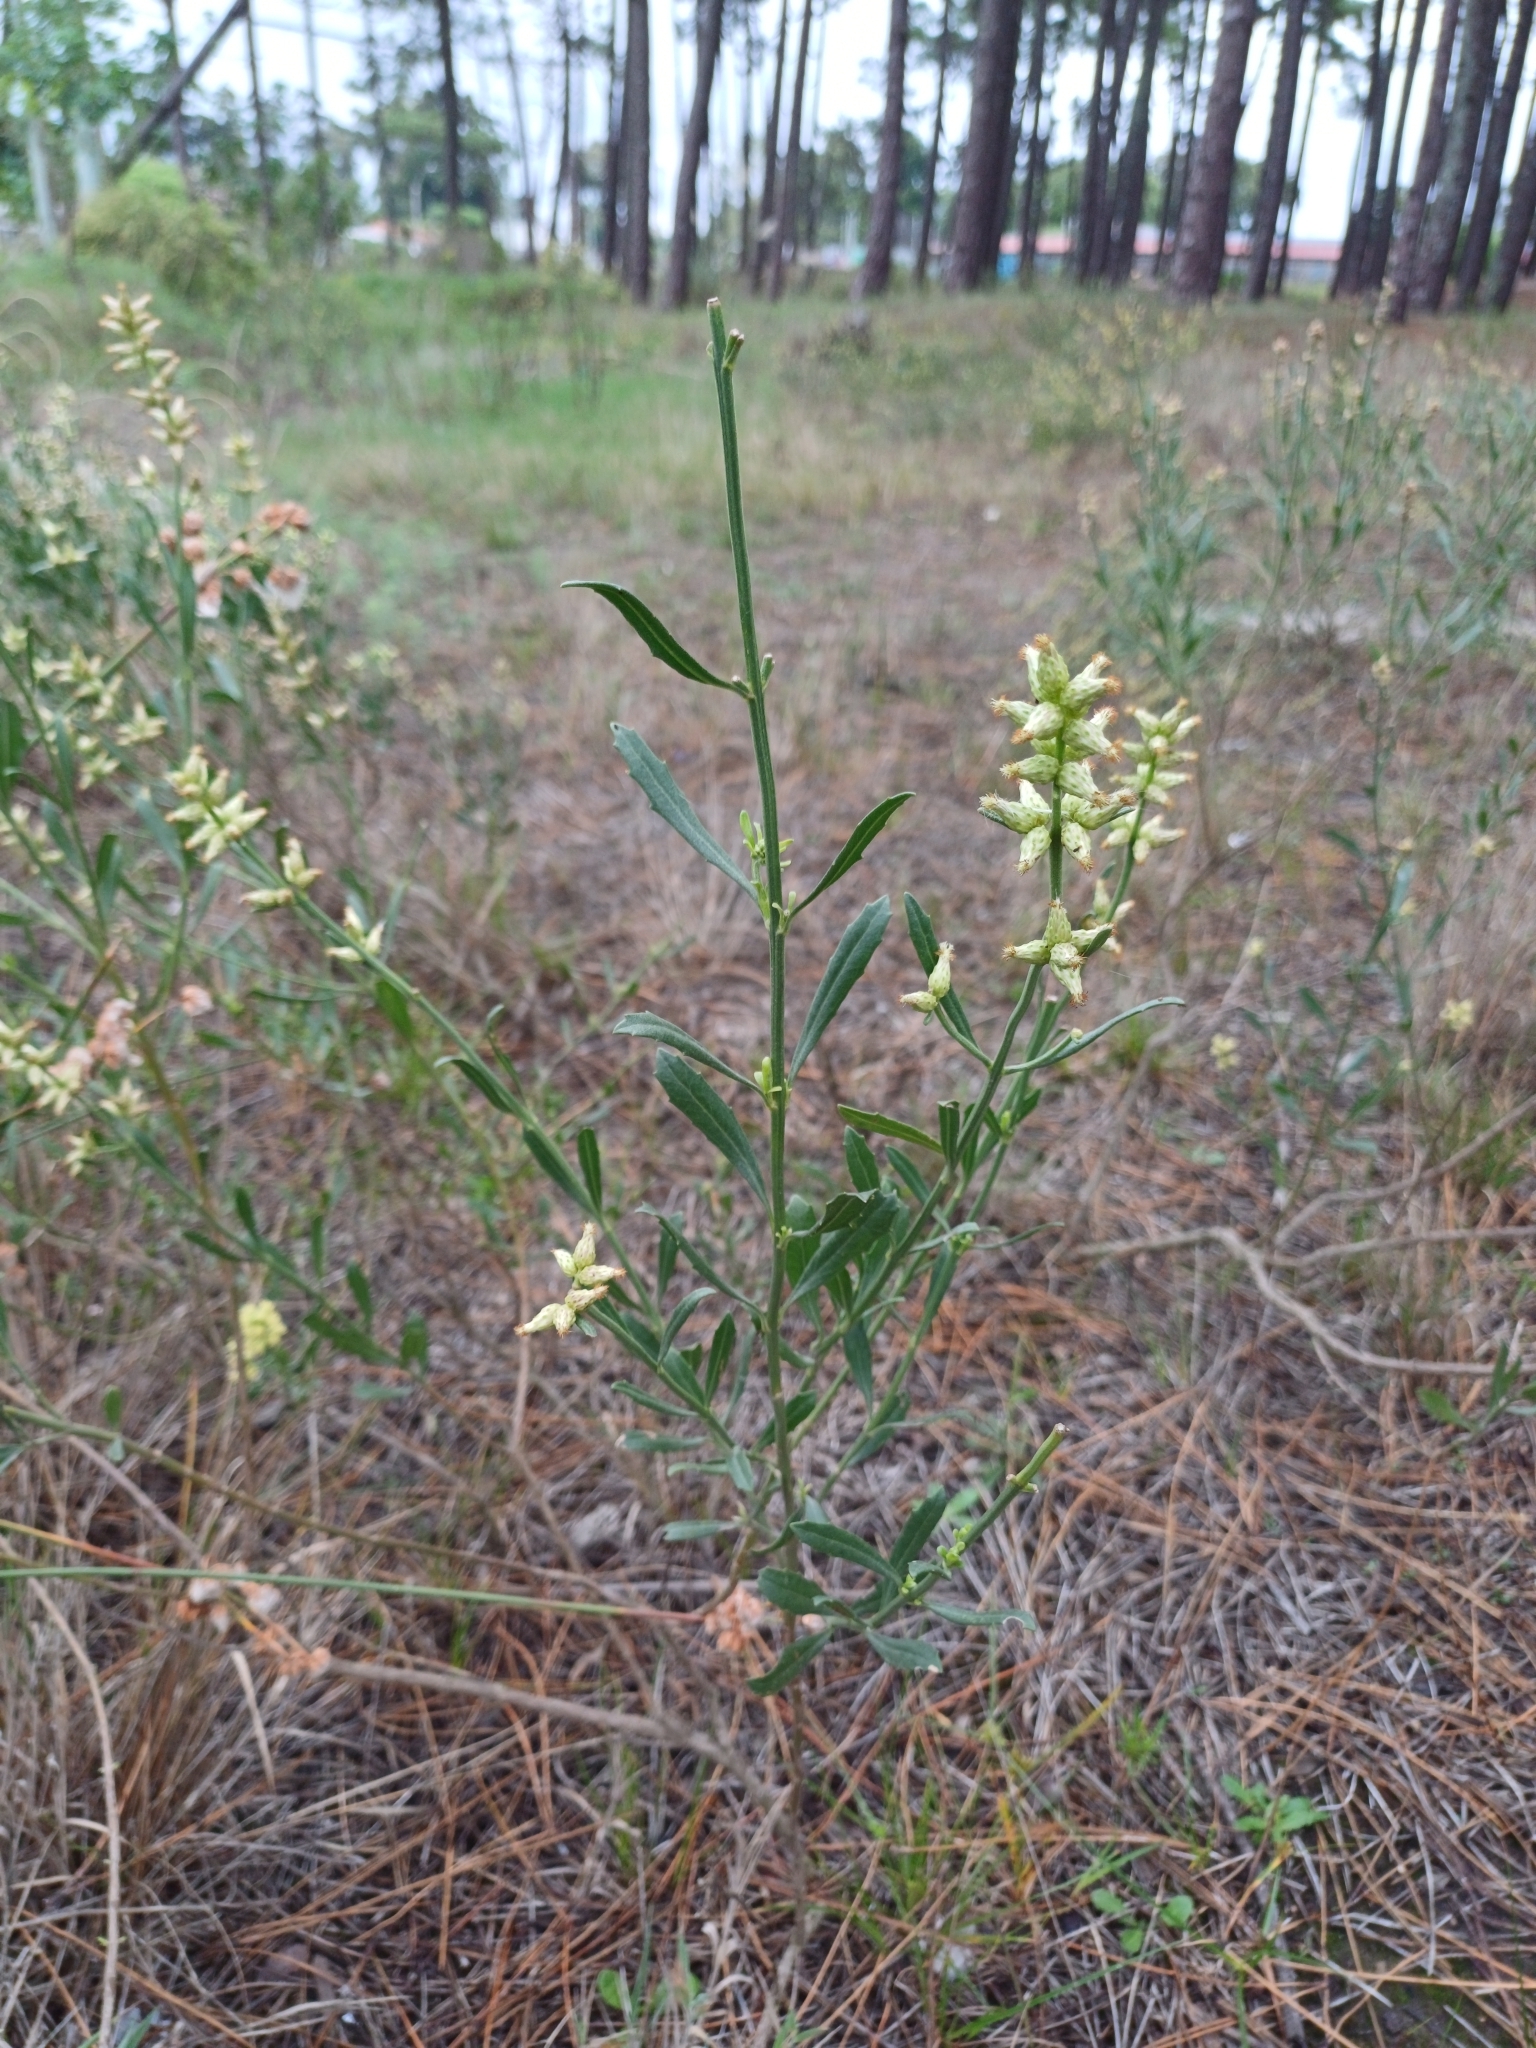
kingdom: Plantae
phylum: Tracheophyta
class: Magnoliopsida
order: Asterales
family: Asteraceae
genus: Baccharis
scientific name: Baccharis spicata
